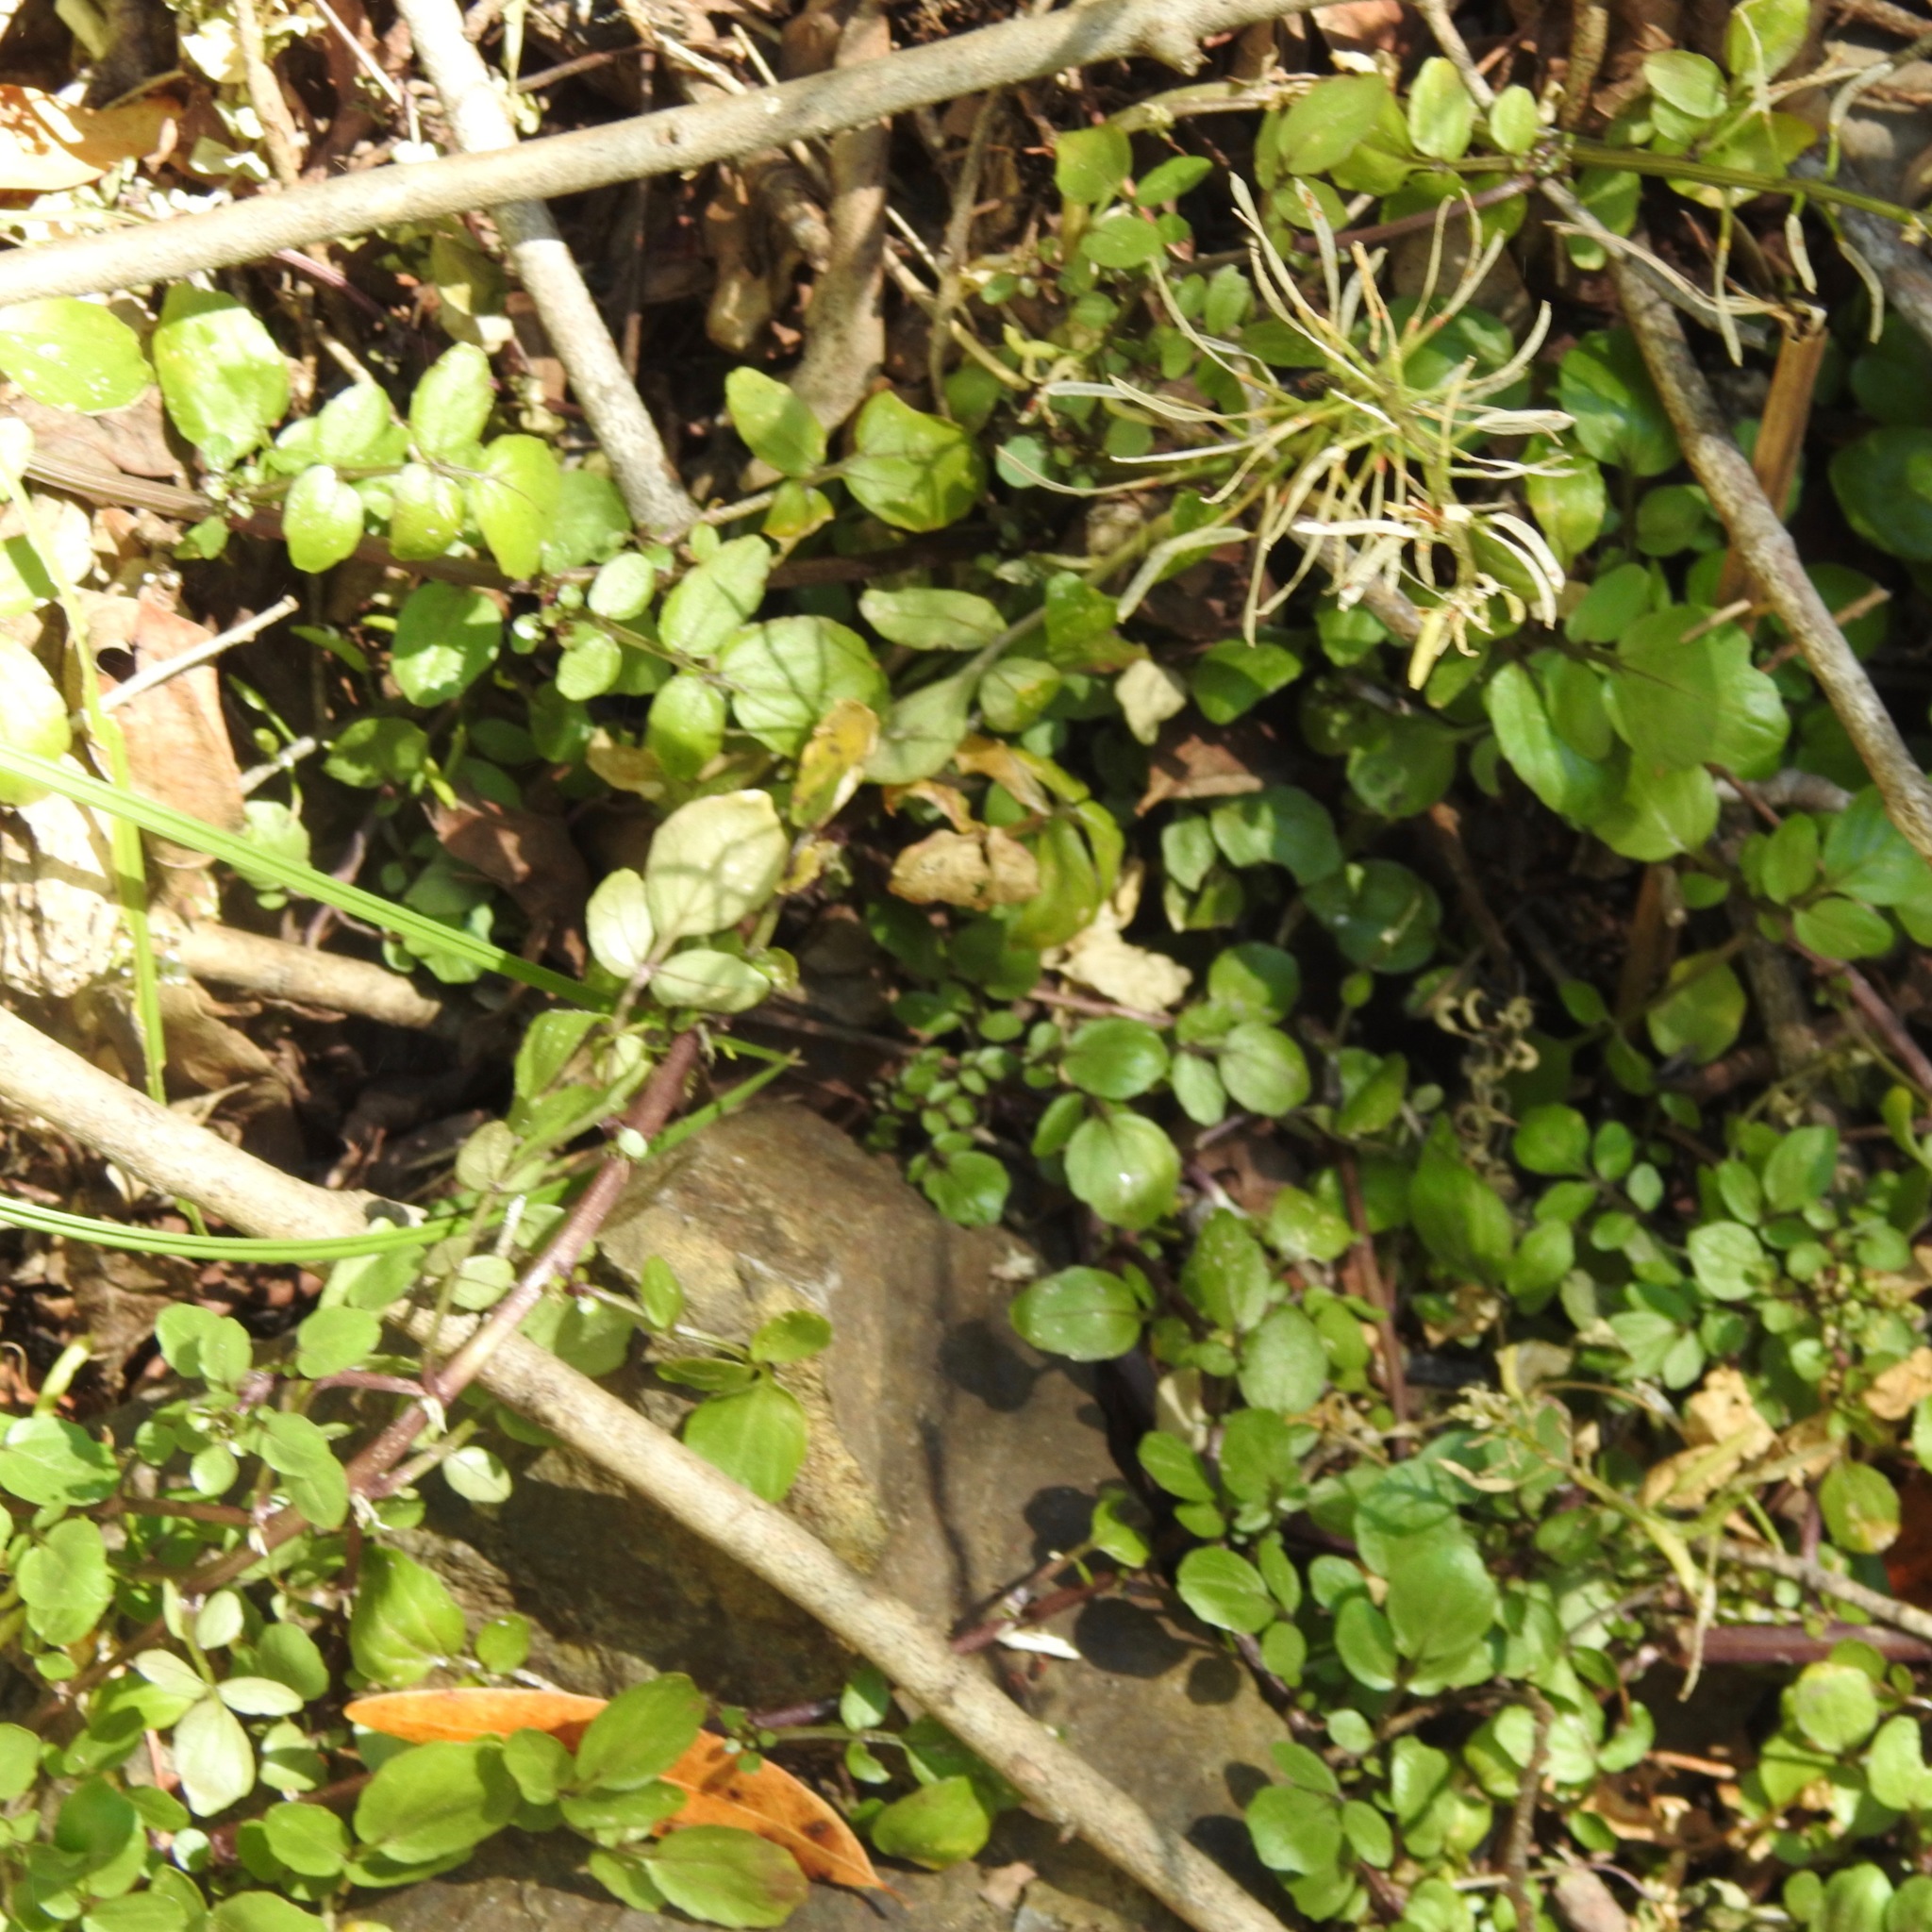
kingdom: Plantae
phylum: Tracheophyta
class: Magnoliopsida
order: Brassicales
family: Brassicaceae
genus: Nasturtium
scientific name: Nasturtium officinale
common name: Watercress
